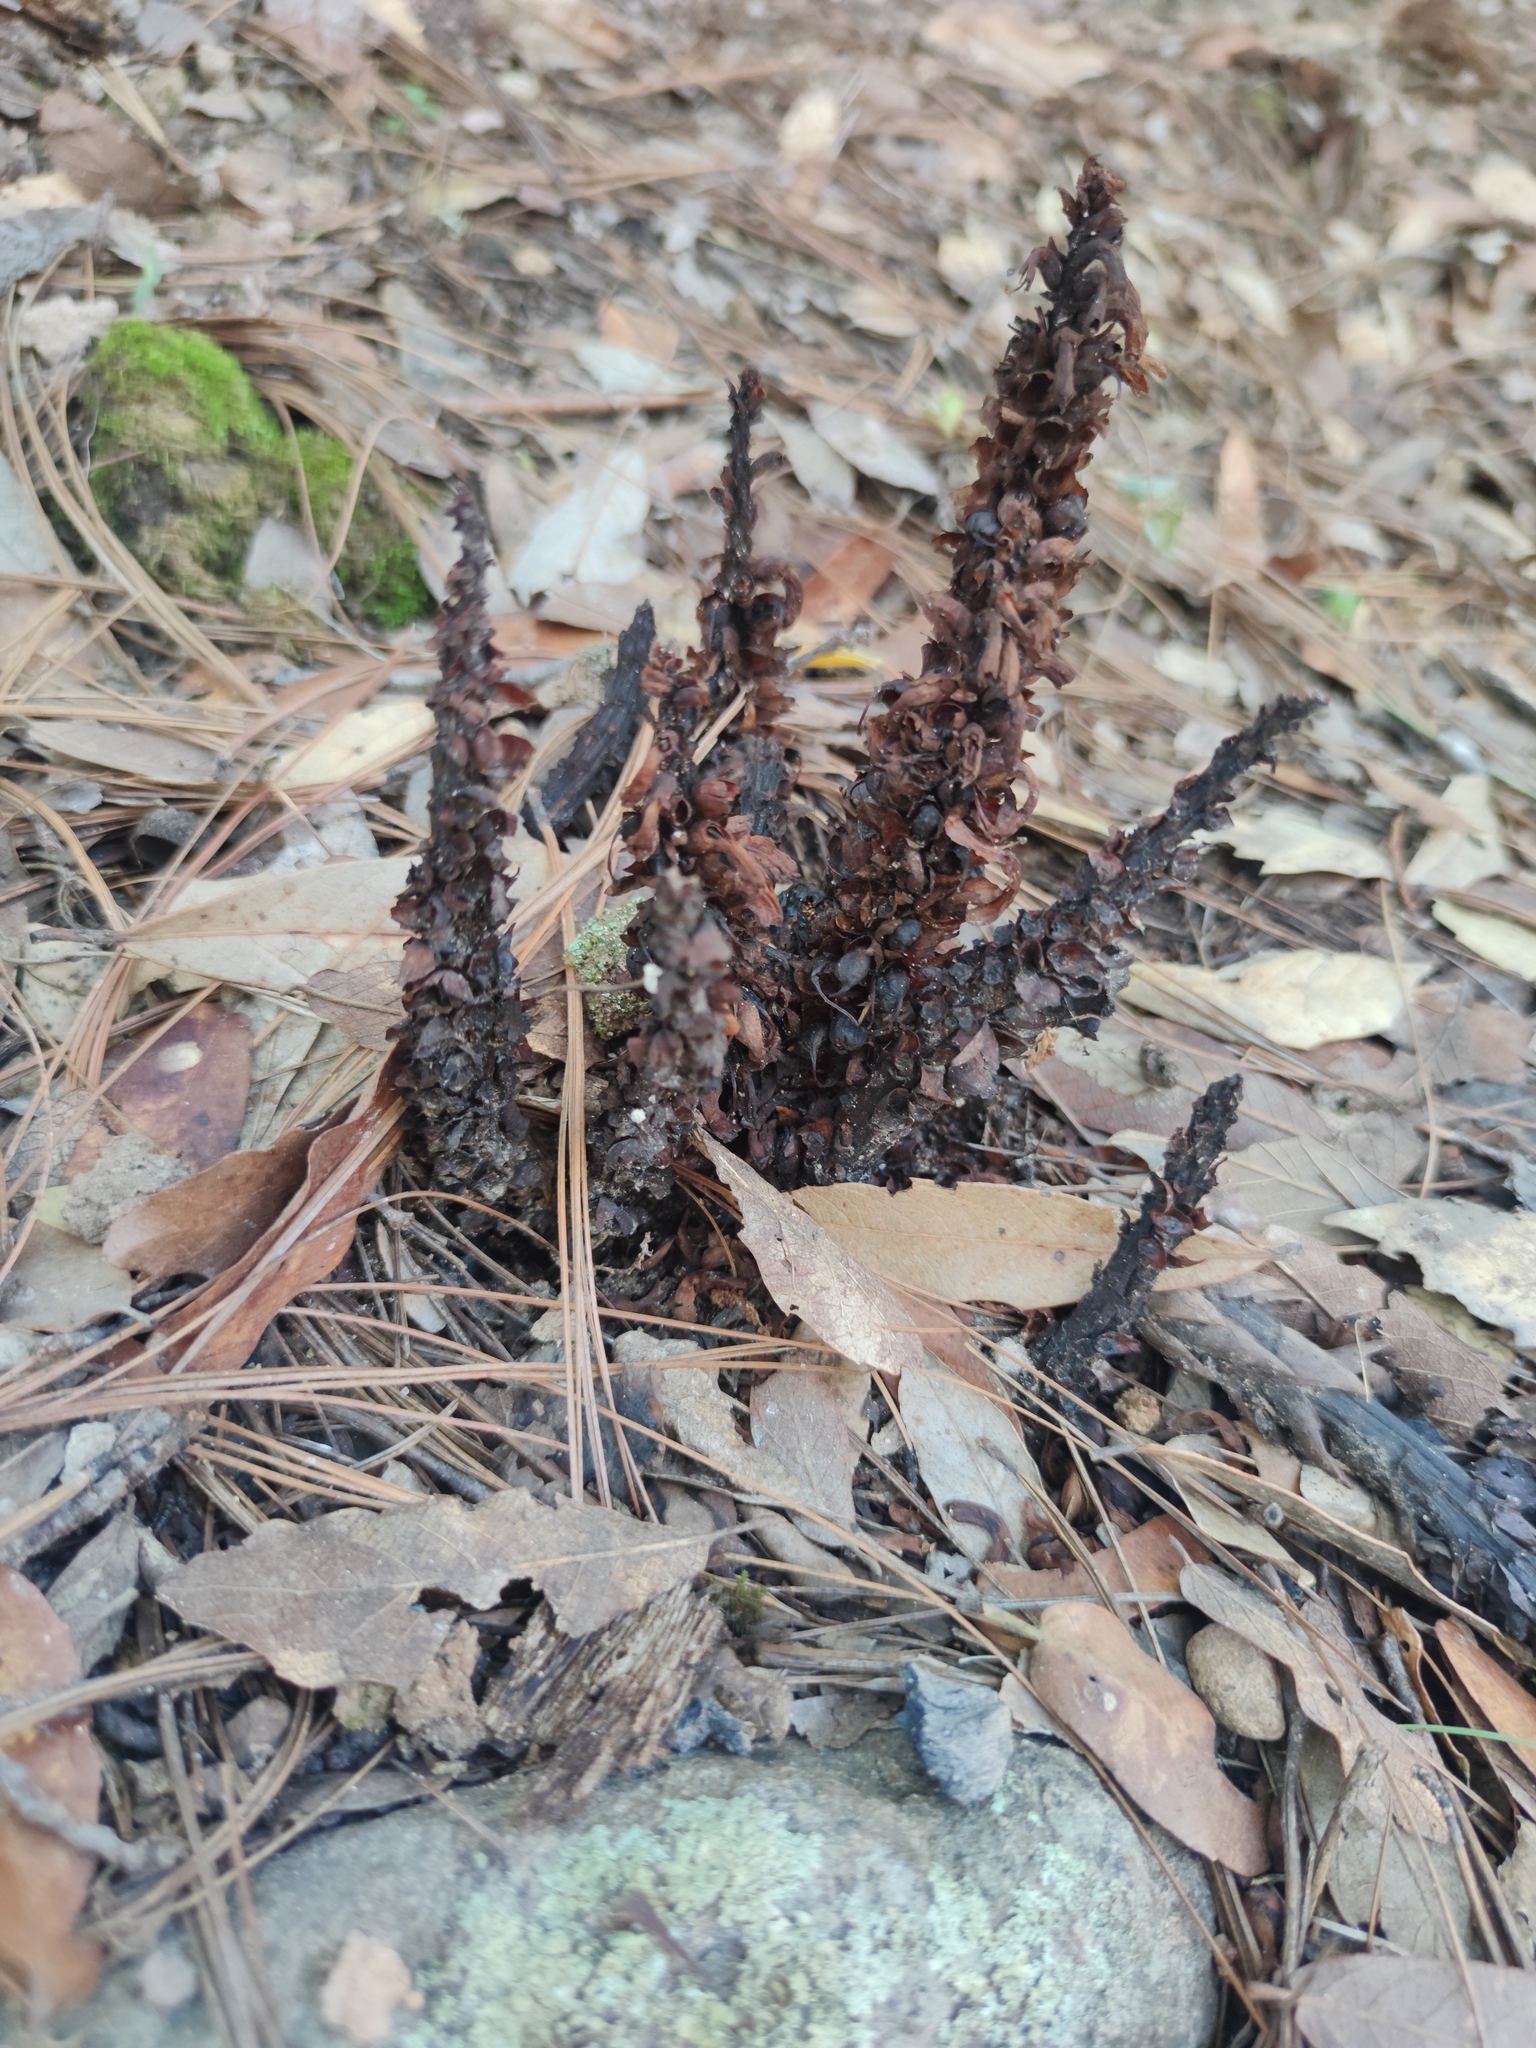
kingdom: Plantae
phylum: Tracheophyta
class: Magnoliopsida
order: Lamiales
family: Orobanchaceae
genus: Conopholis
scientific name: Conopholis alpina
